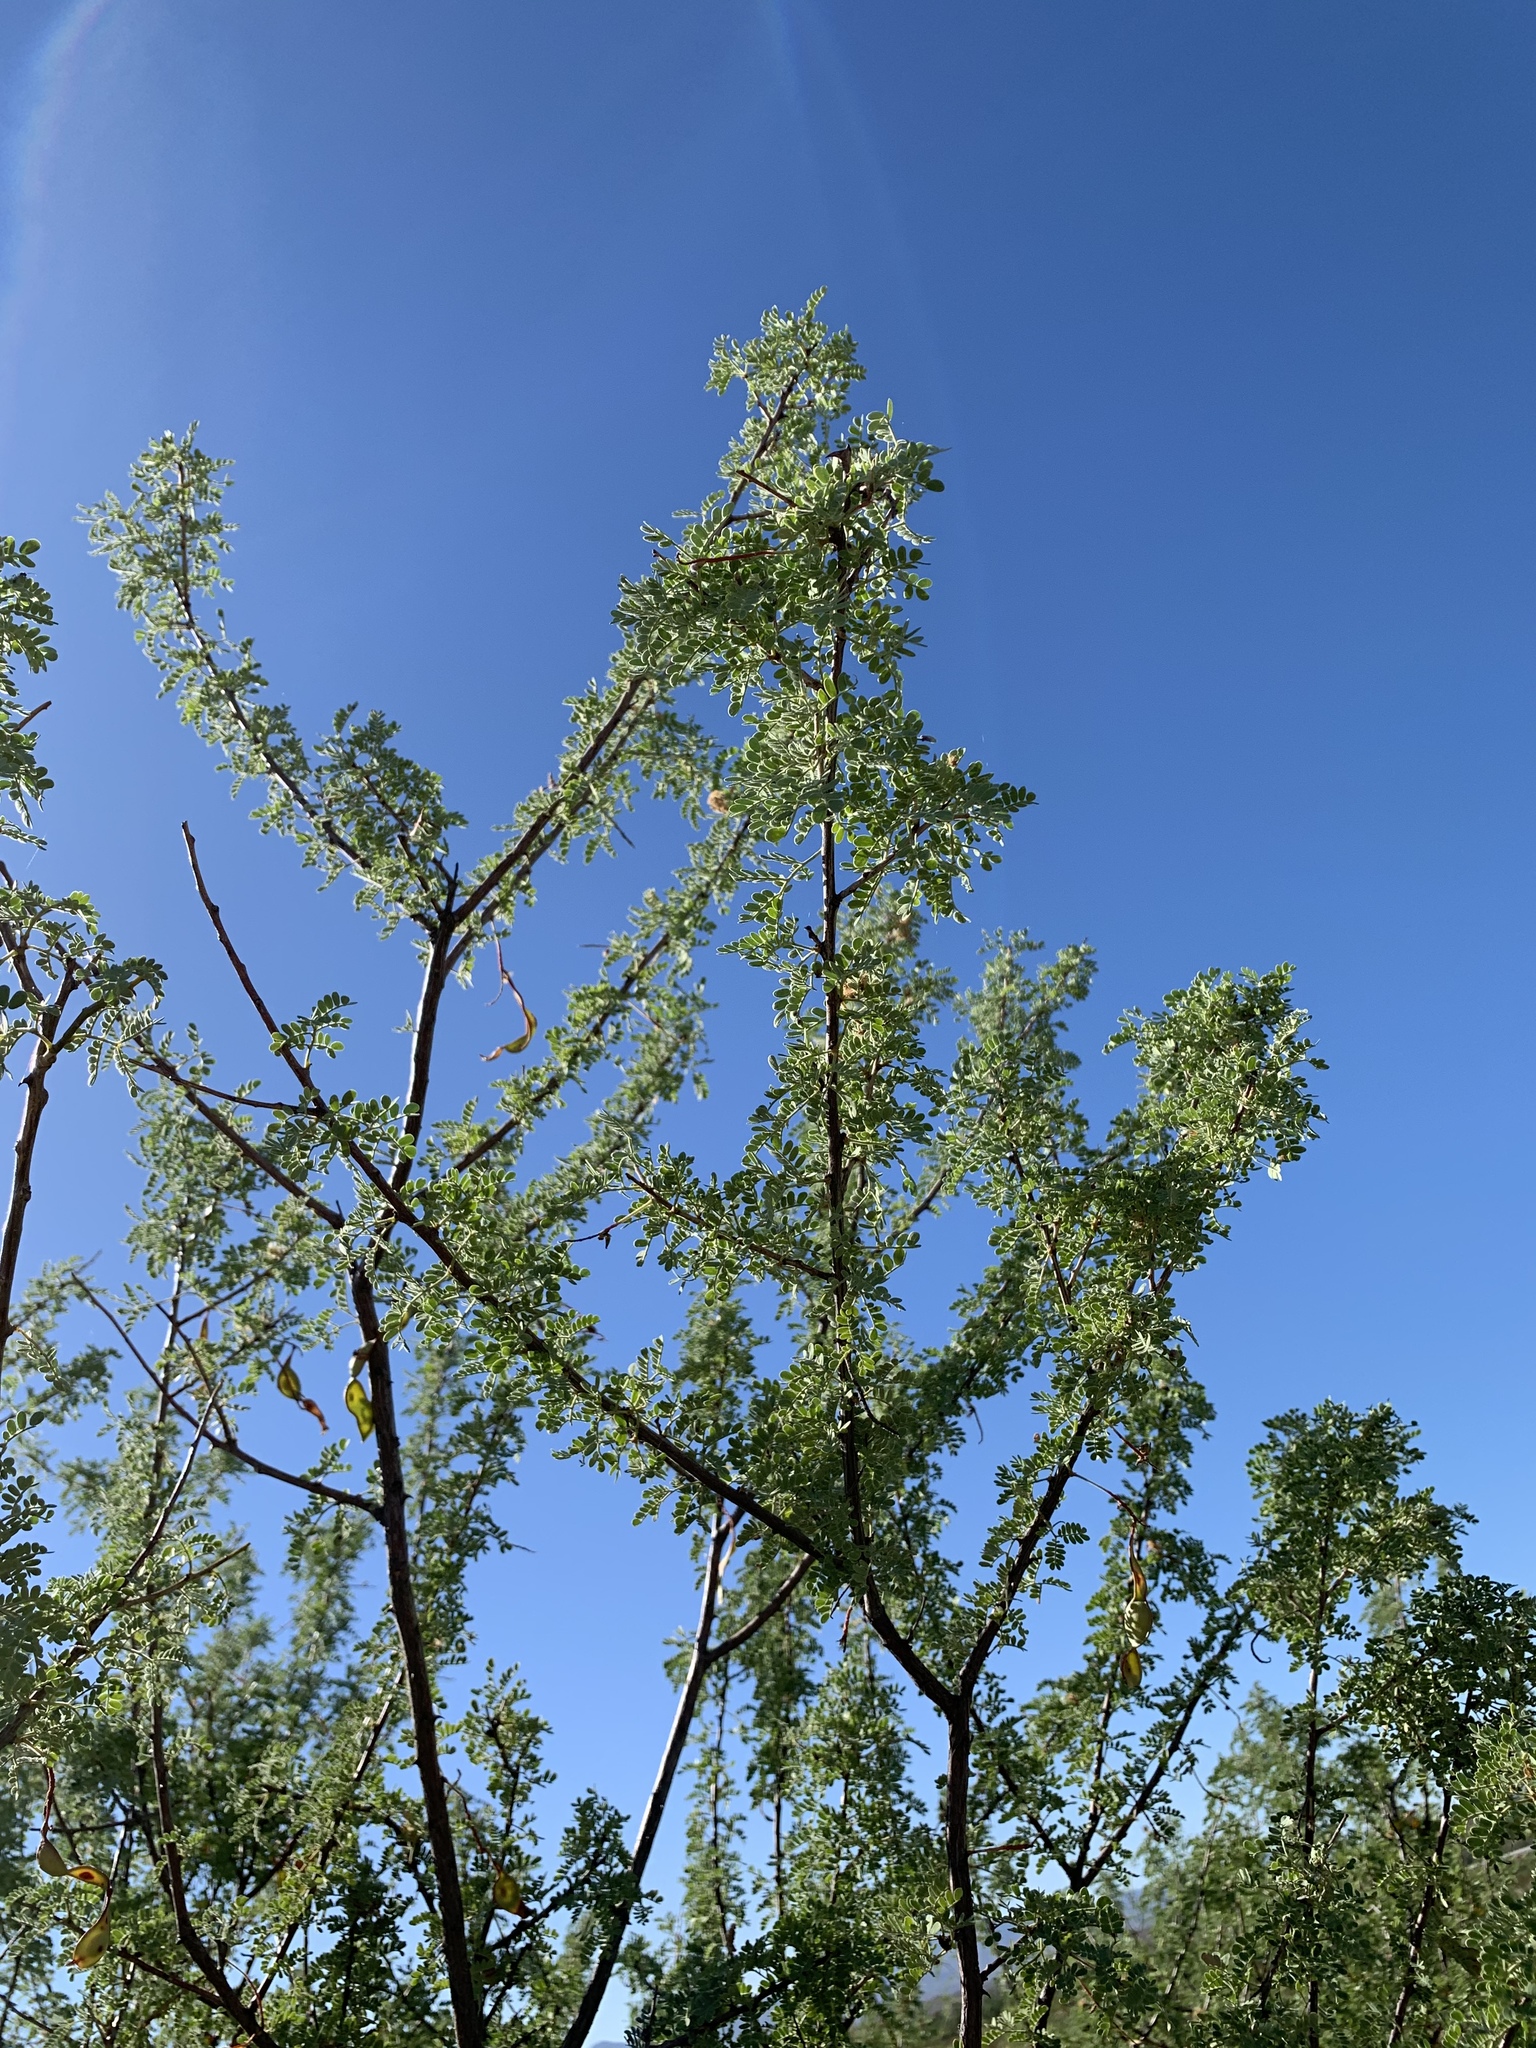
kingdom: Plantae
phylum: Tracheophyta
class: Magnoliopsida
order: Fabales
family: Fabaceae
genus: Senegalia
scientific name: Senegalia greggii
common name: Texas-mimosa
